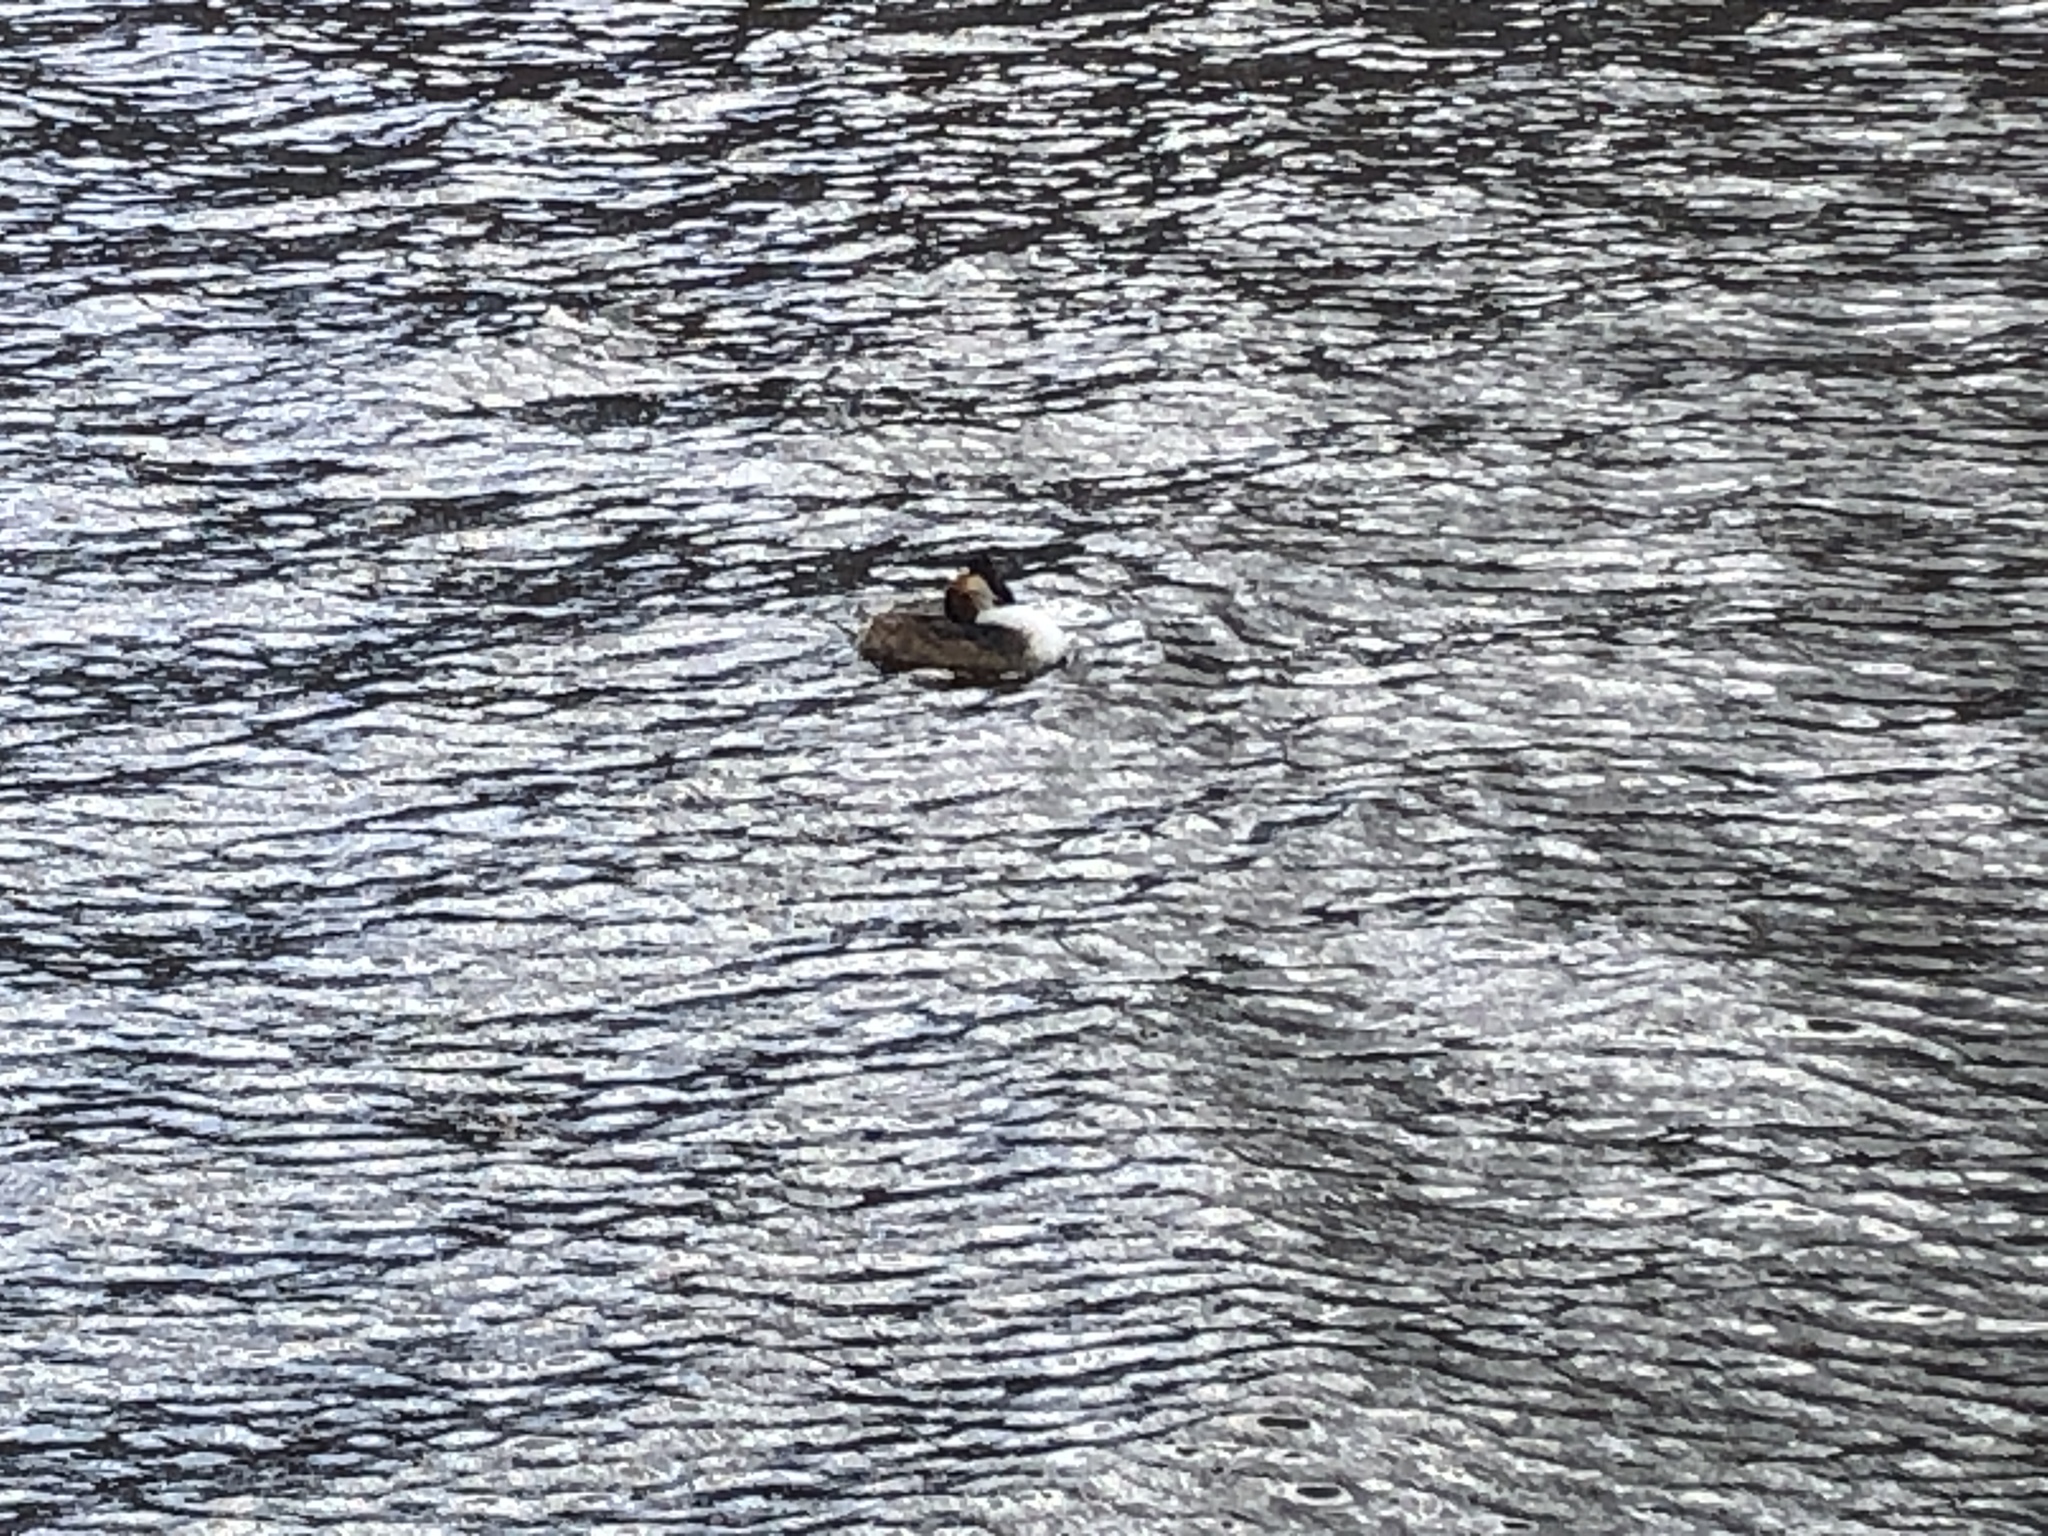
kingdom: Animalia
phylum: Chordata
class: Aves
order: Podicipediformes
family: Podicipedidae
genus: Podiceps
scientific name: Podiceps cristatus
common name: Great crested grebe
